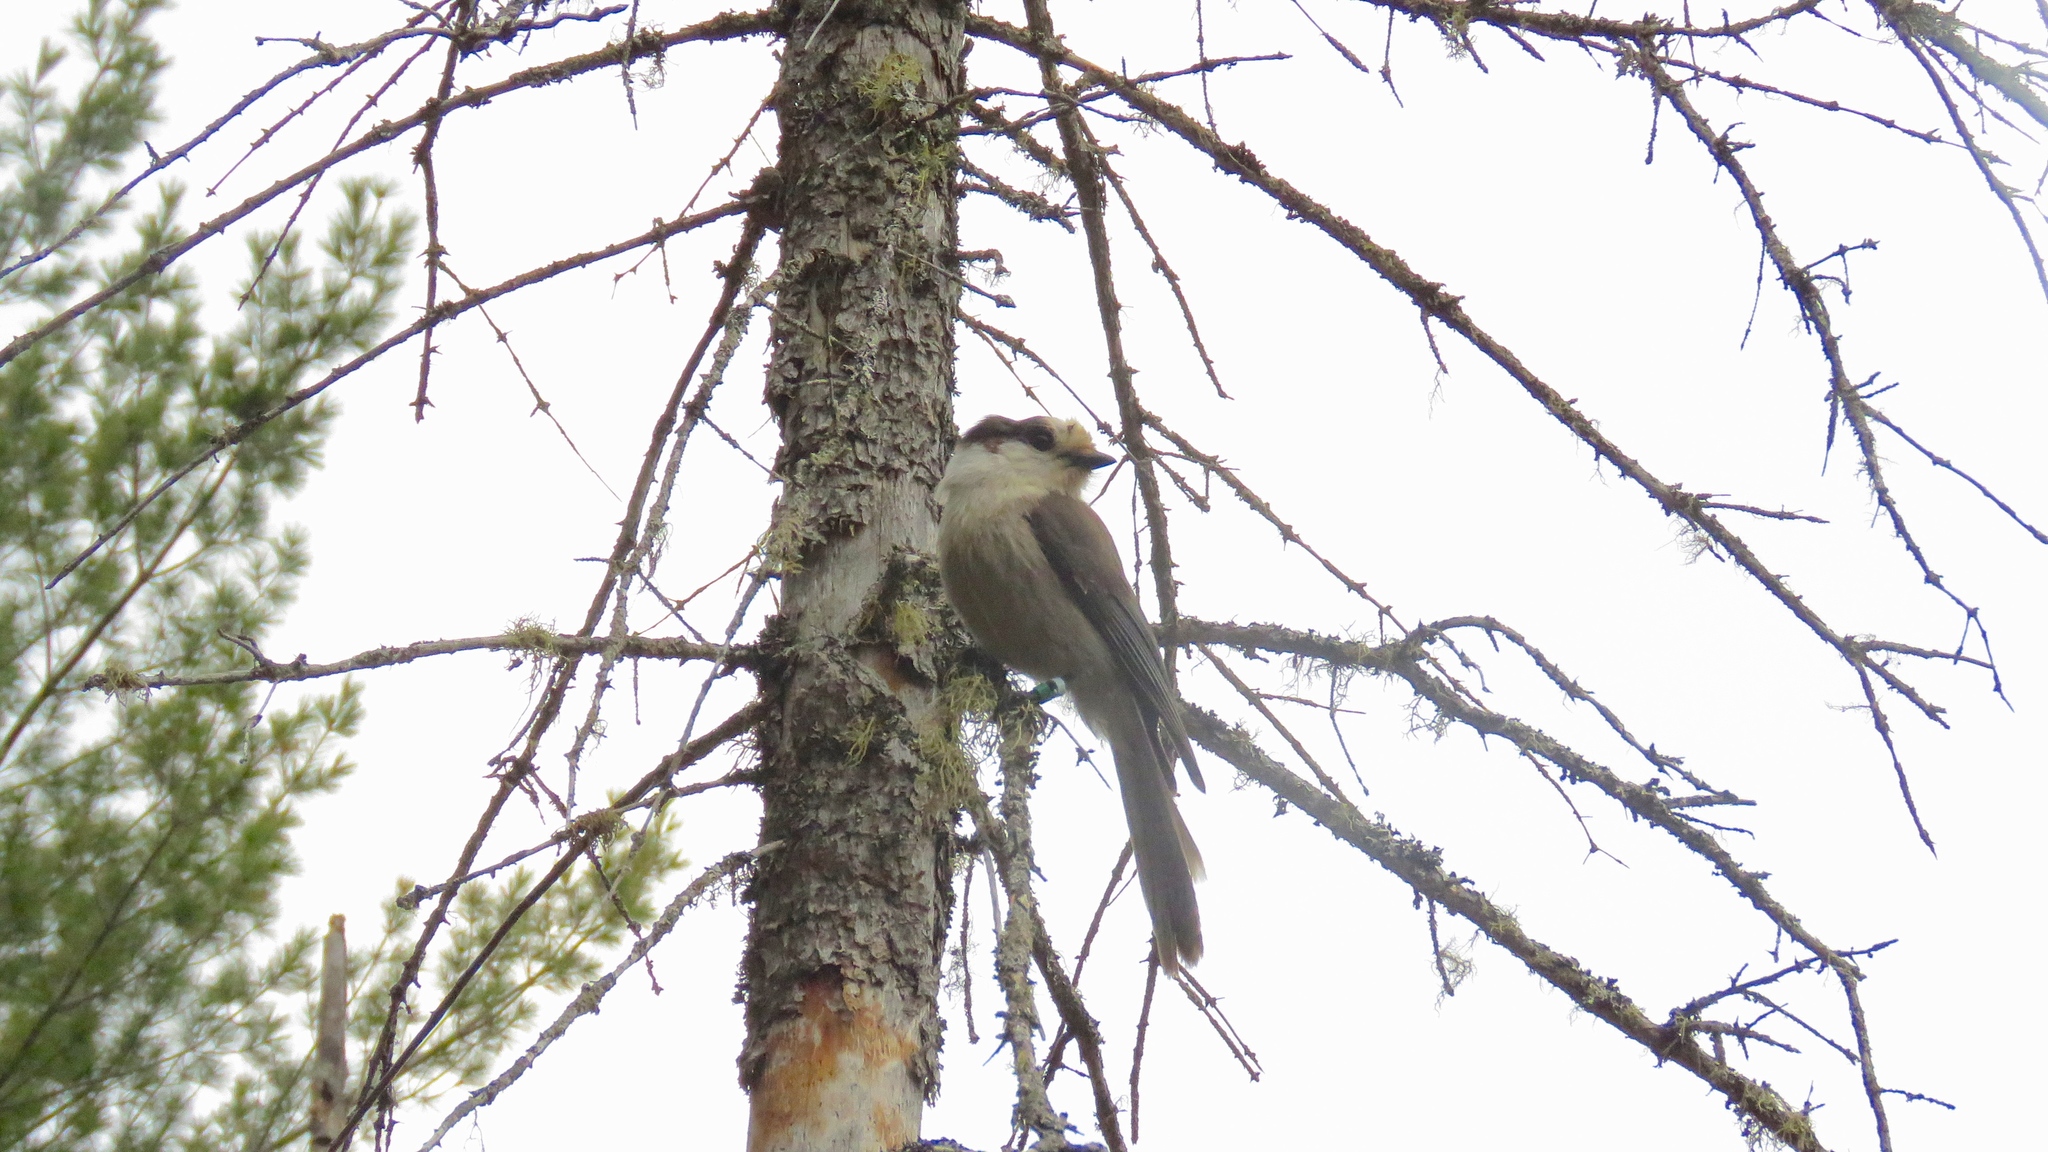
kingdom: Animalia
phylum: Chordata
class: Aves
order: Passeriformes
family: Corvidae
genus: Perisoreus
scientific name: Perisoreus canadensis
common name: Gray jay
